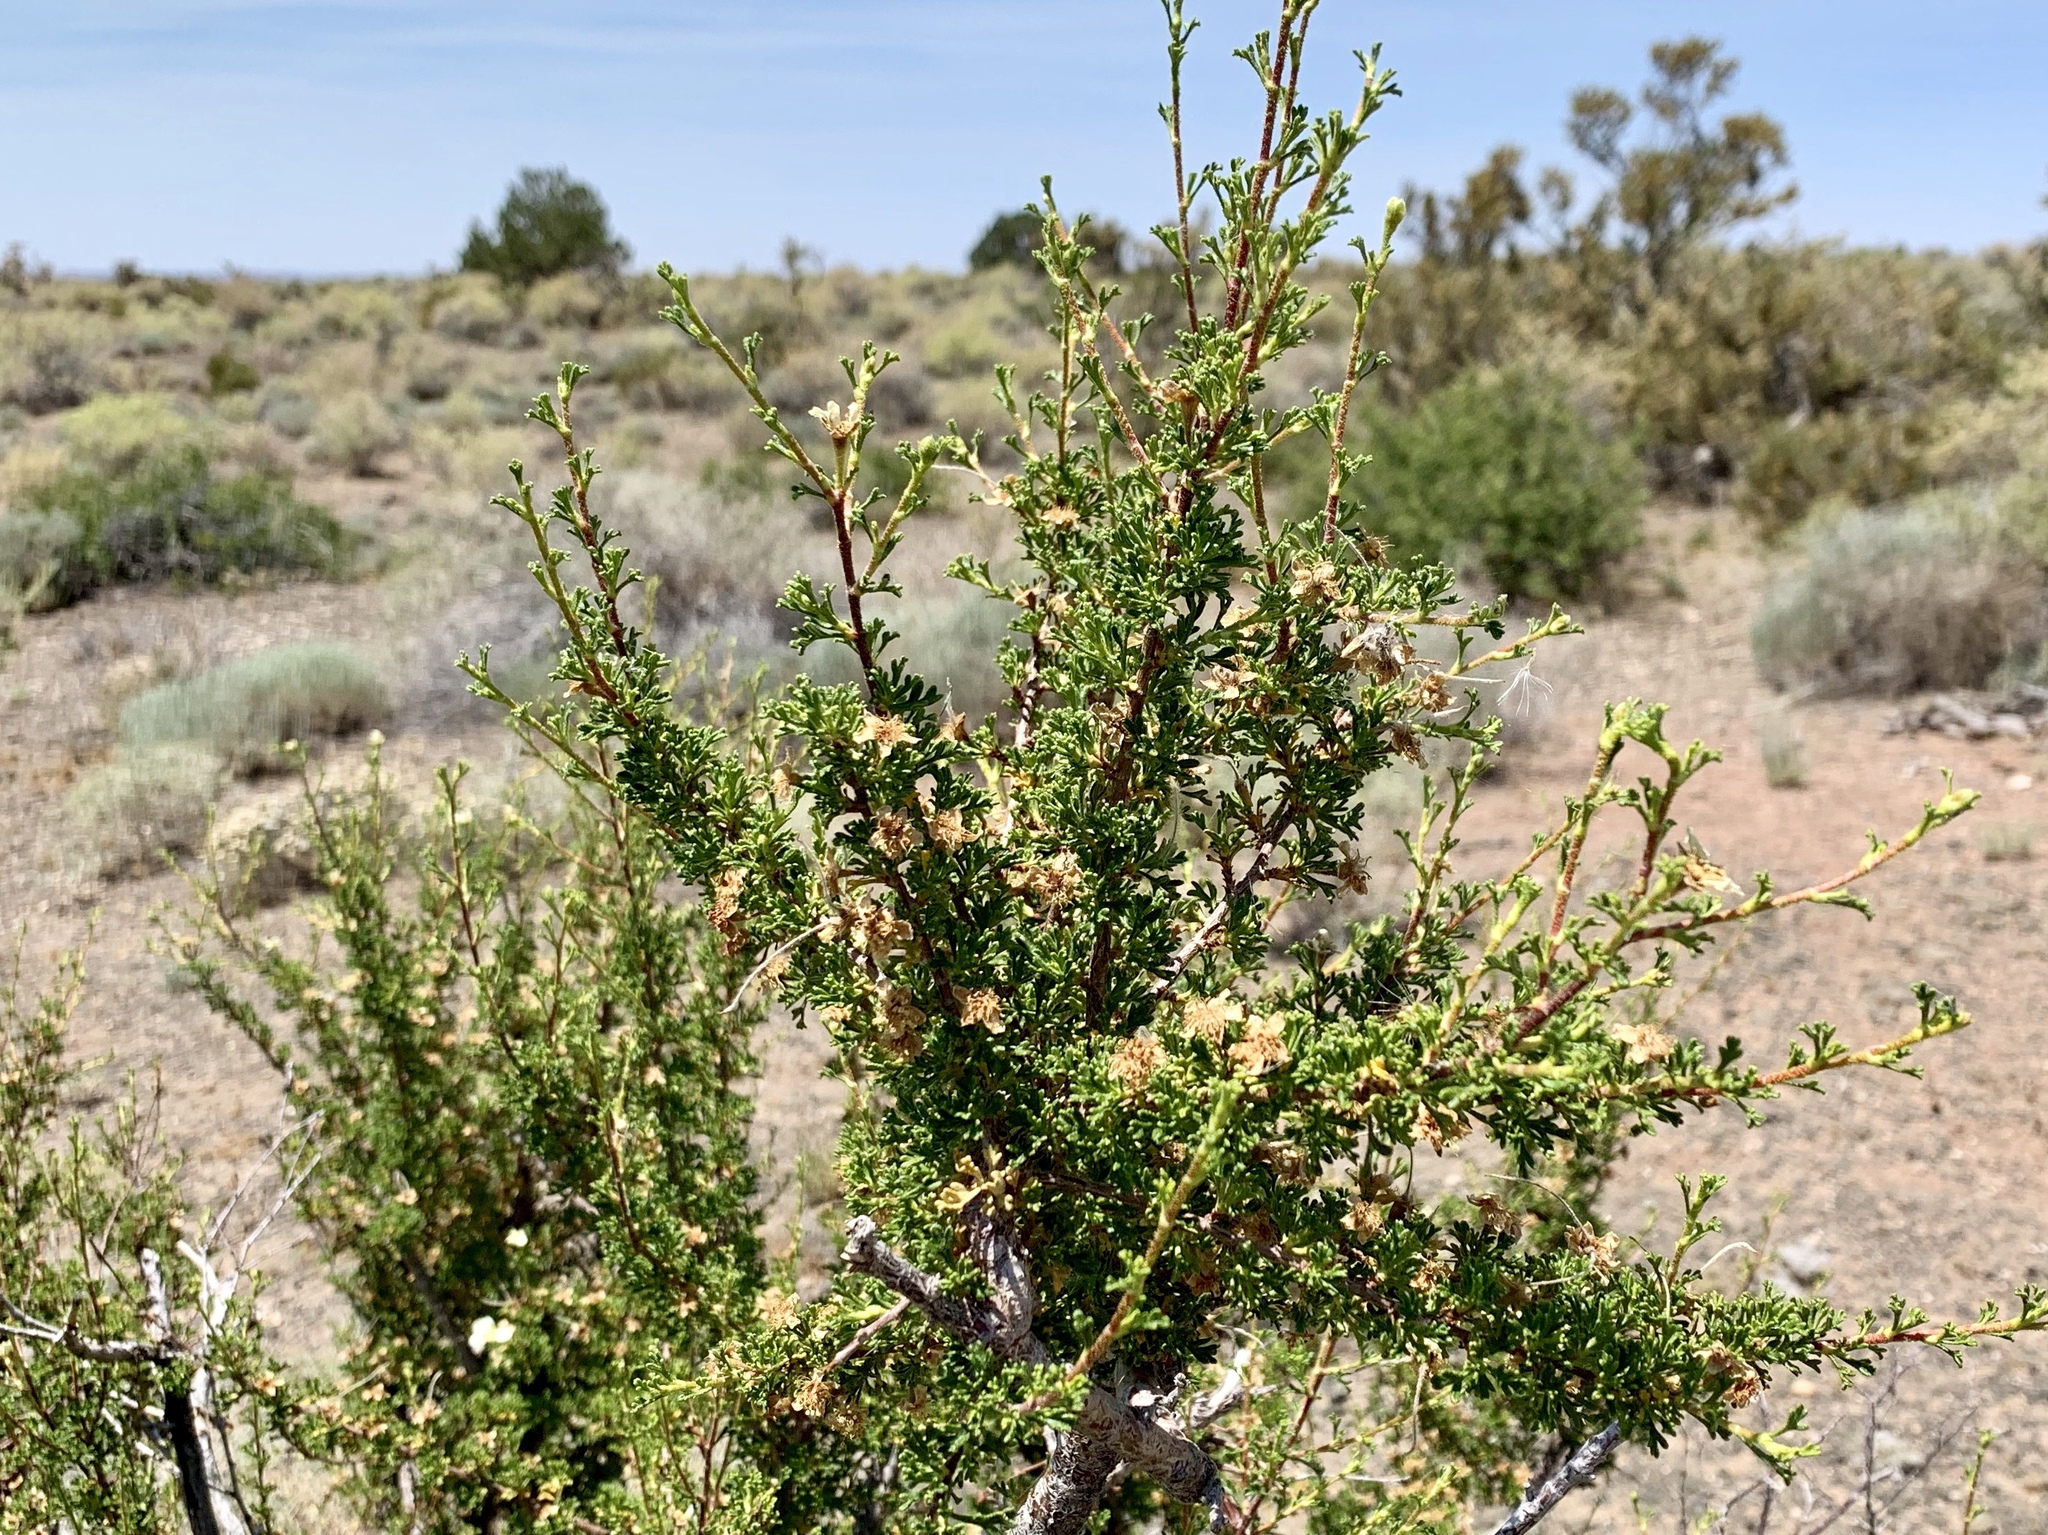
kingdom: Plantae
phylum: Tracheophyta
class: Magnoliopsida
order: Rosales
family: Rosaceae
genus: Purshia
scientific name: Purshia stansburiana
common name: Stansbury's cliffrose
